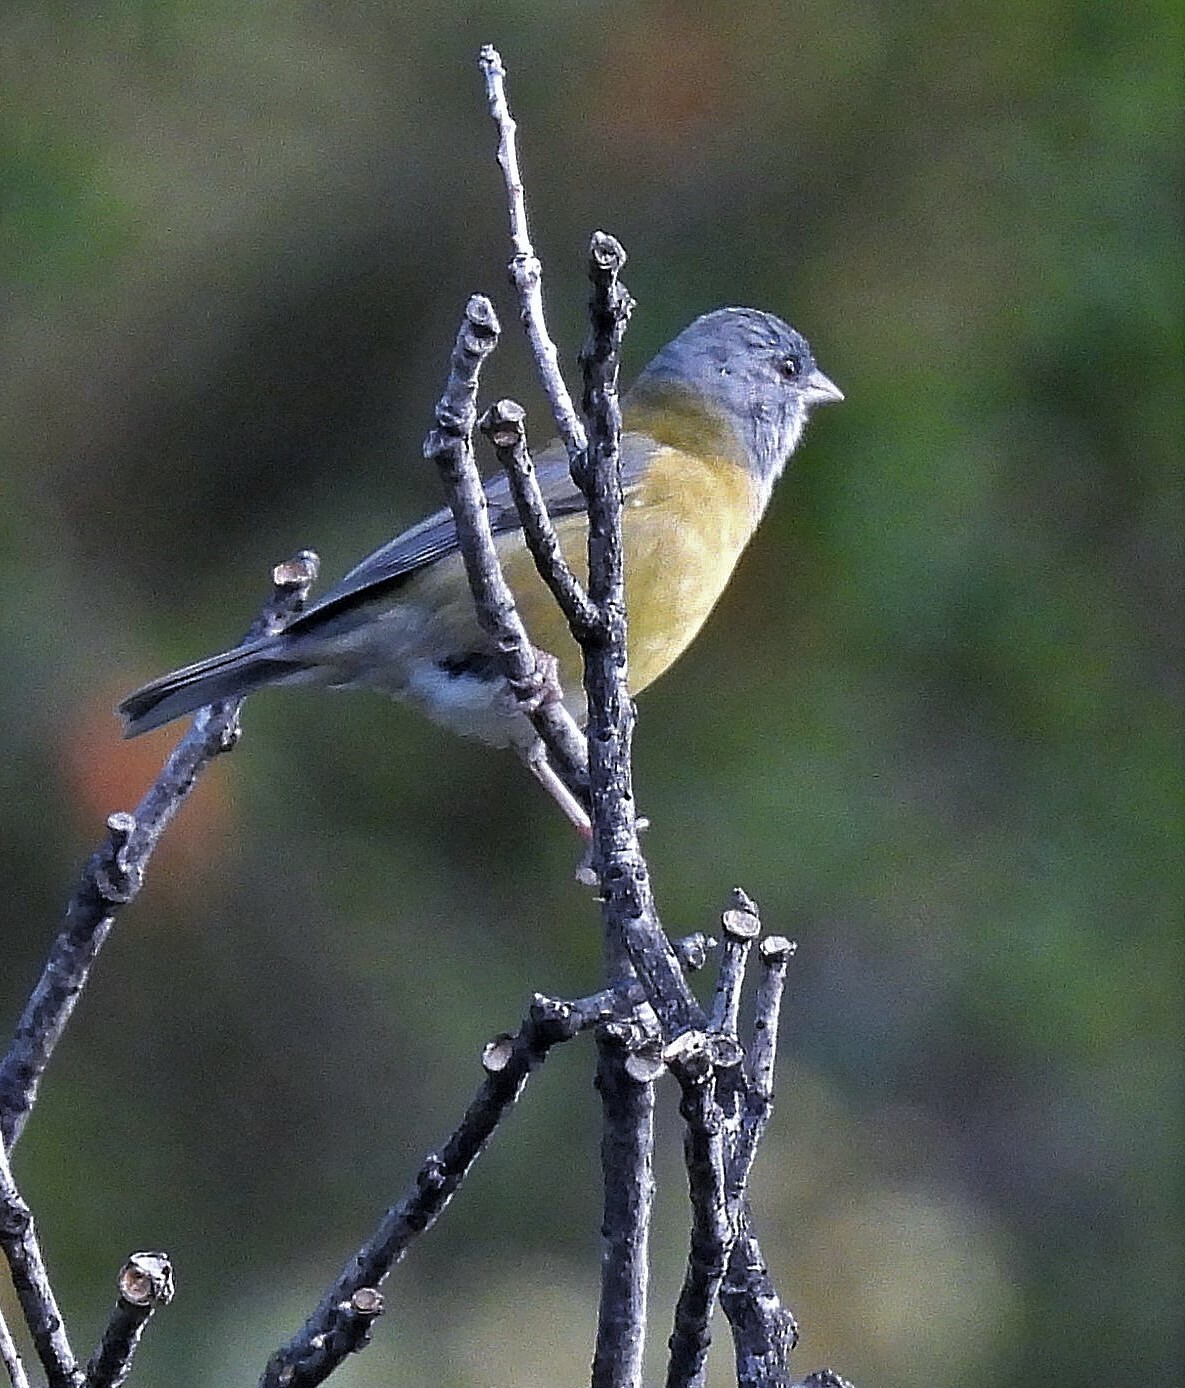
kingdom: Animalia
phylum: Chordata
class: Aves
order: Passeriformes
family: Thraupidae
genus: Phrygilus
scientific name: Phrygilus patagonicus
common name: Patagonian sierra finch
